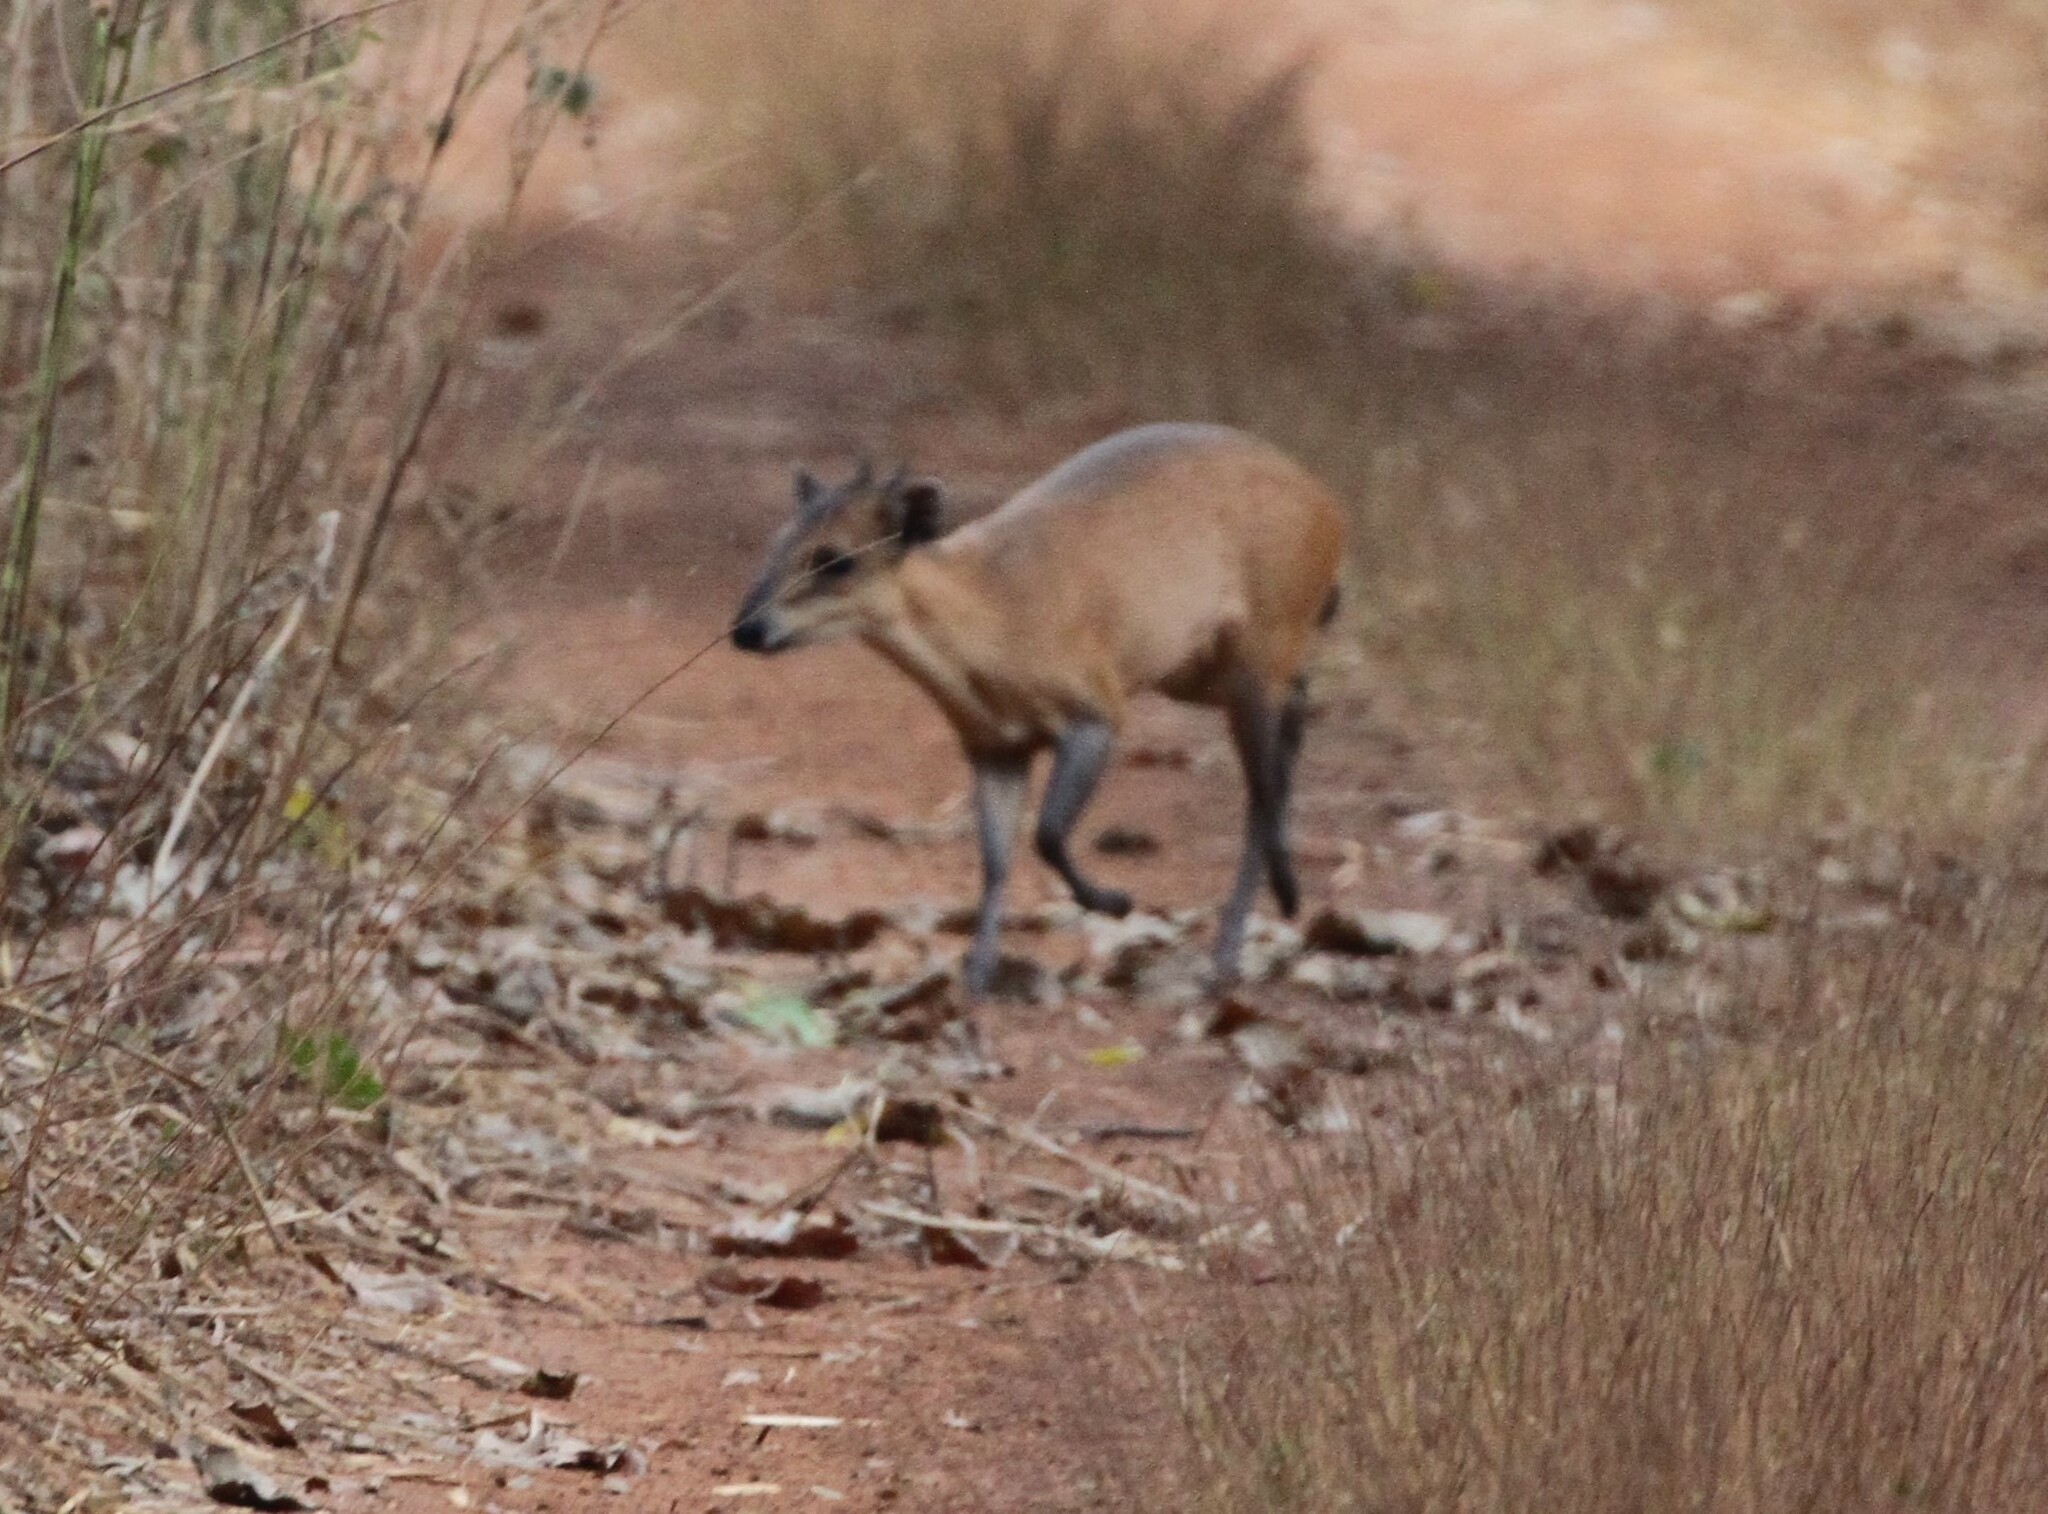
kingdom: Animalia
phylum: Chordata
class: Mammalia
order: Artiodactyla
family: Bovidae
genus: Cephalophus
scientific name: Cephalophus rufilatus
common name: Red-flanked duiker
